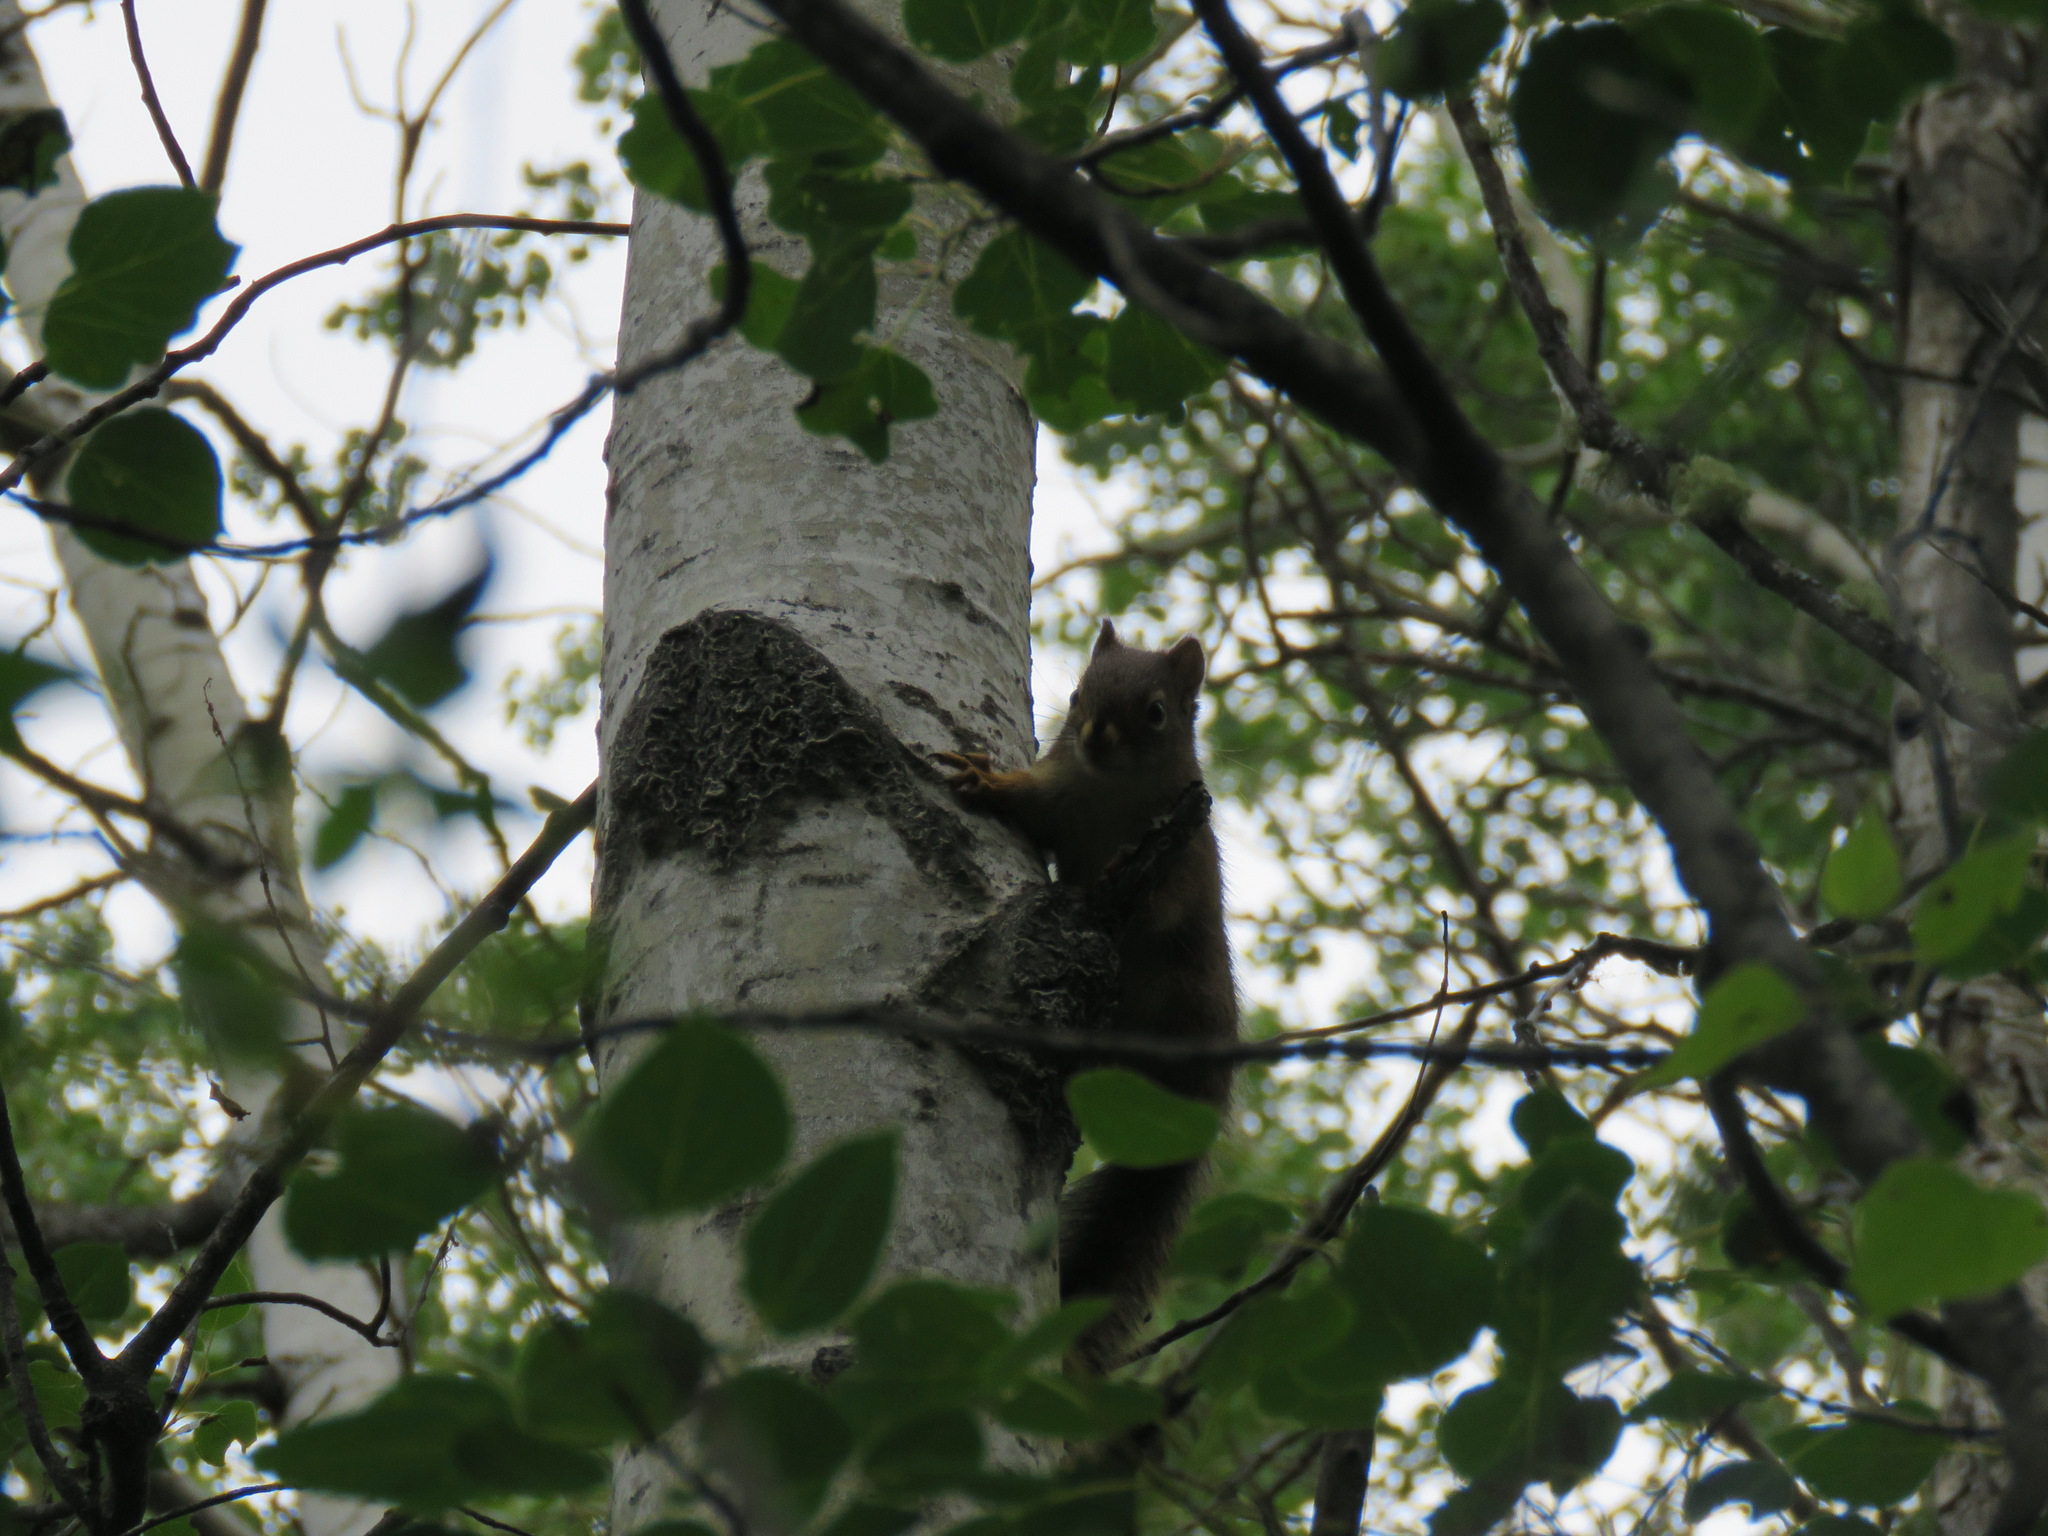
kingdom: Animalia
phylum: Chordata
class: Mammalia
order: Rodentia
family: Sciuridae
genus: Tamiasciurus
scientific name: Tamiasciurus hudsonicus
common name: Red squirrel
